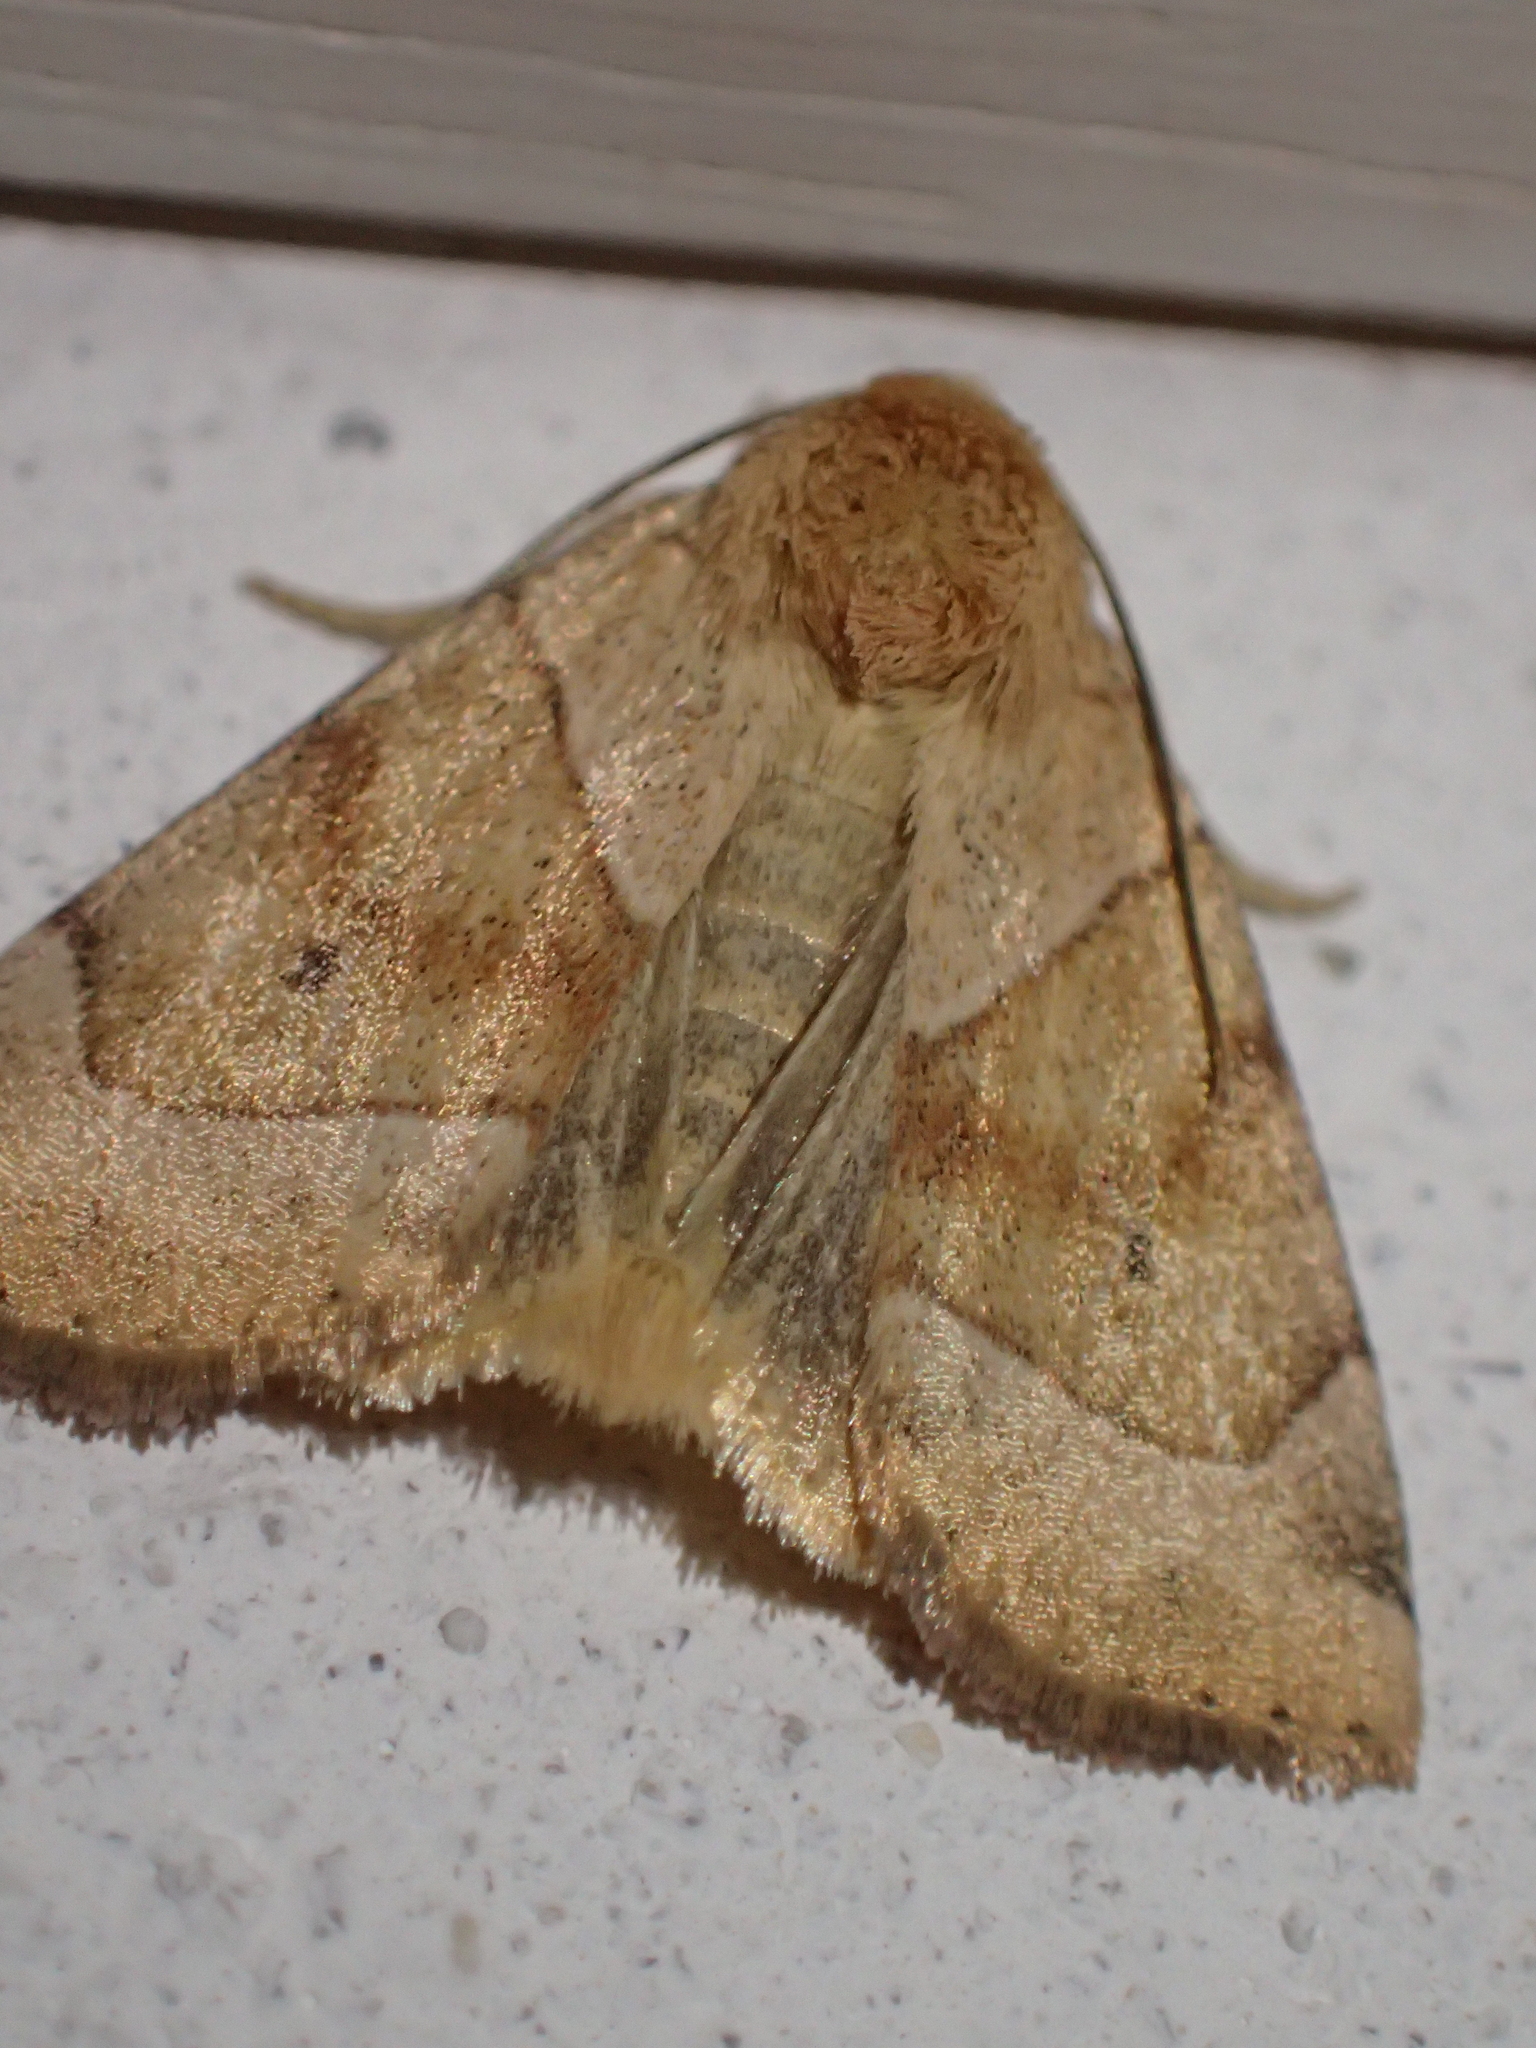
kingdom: Animalia
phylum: Arthropoda
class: Insecta
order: Lepidoptera
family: Noctuidae
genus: Cosmia
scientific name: Cosmia trapezina
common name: Dun-bar
